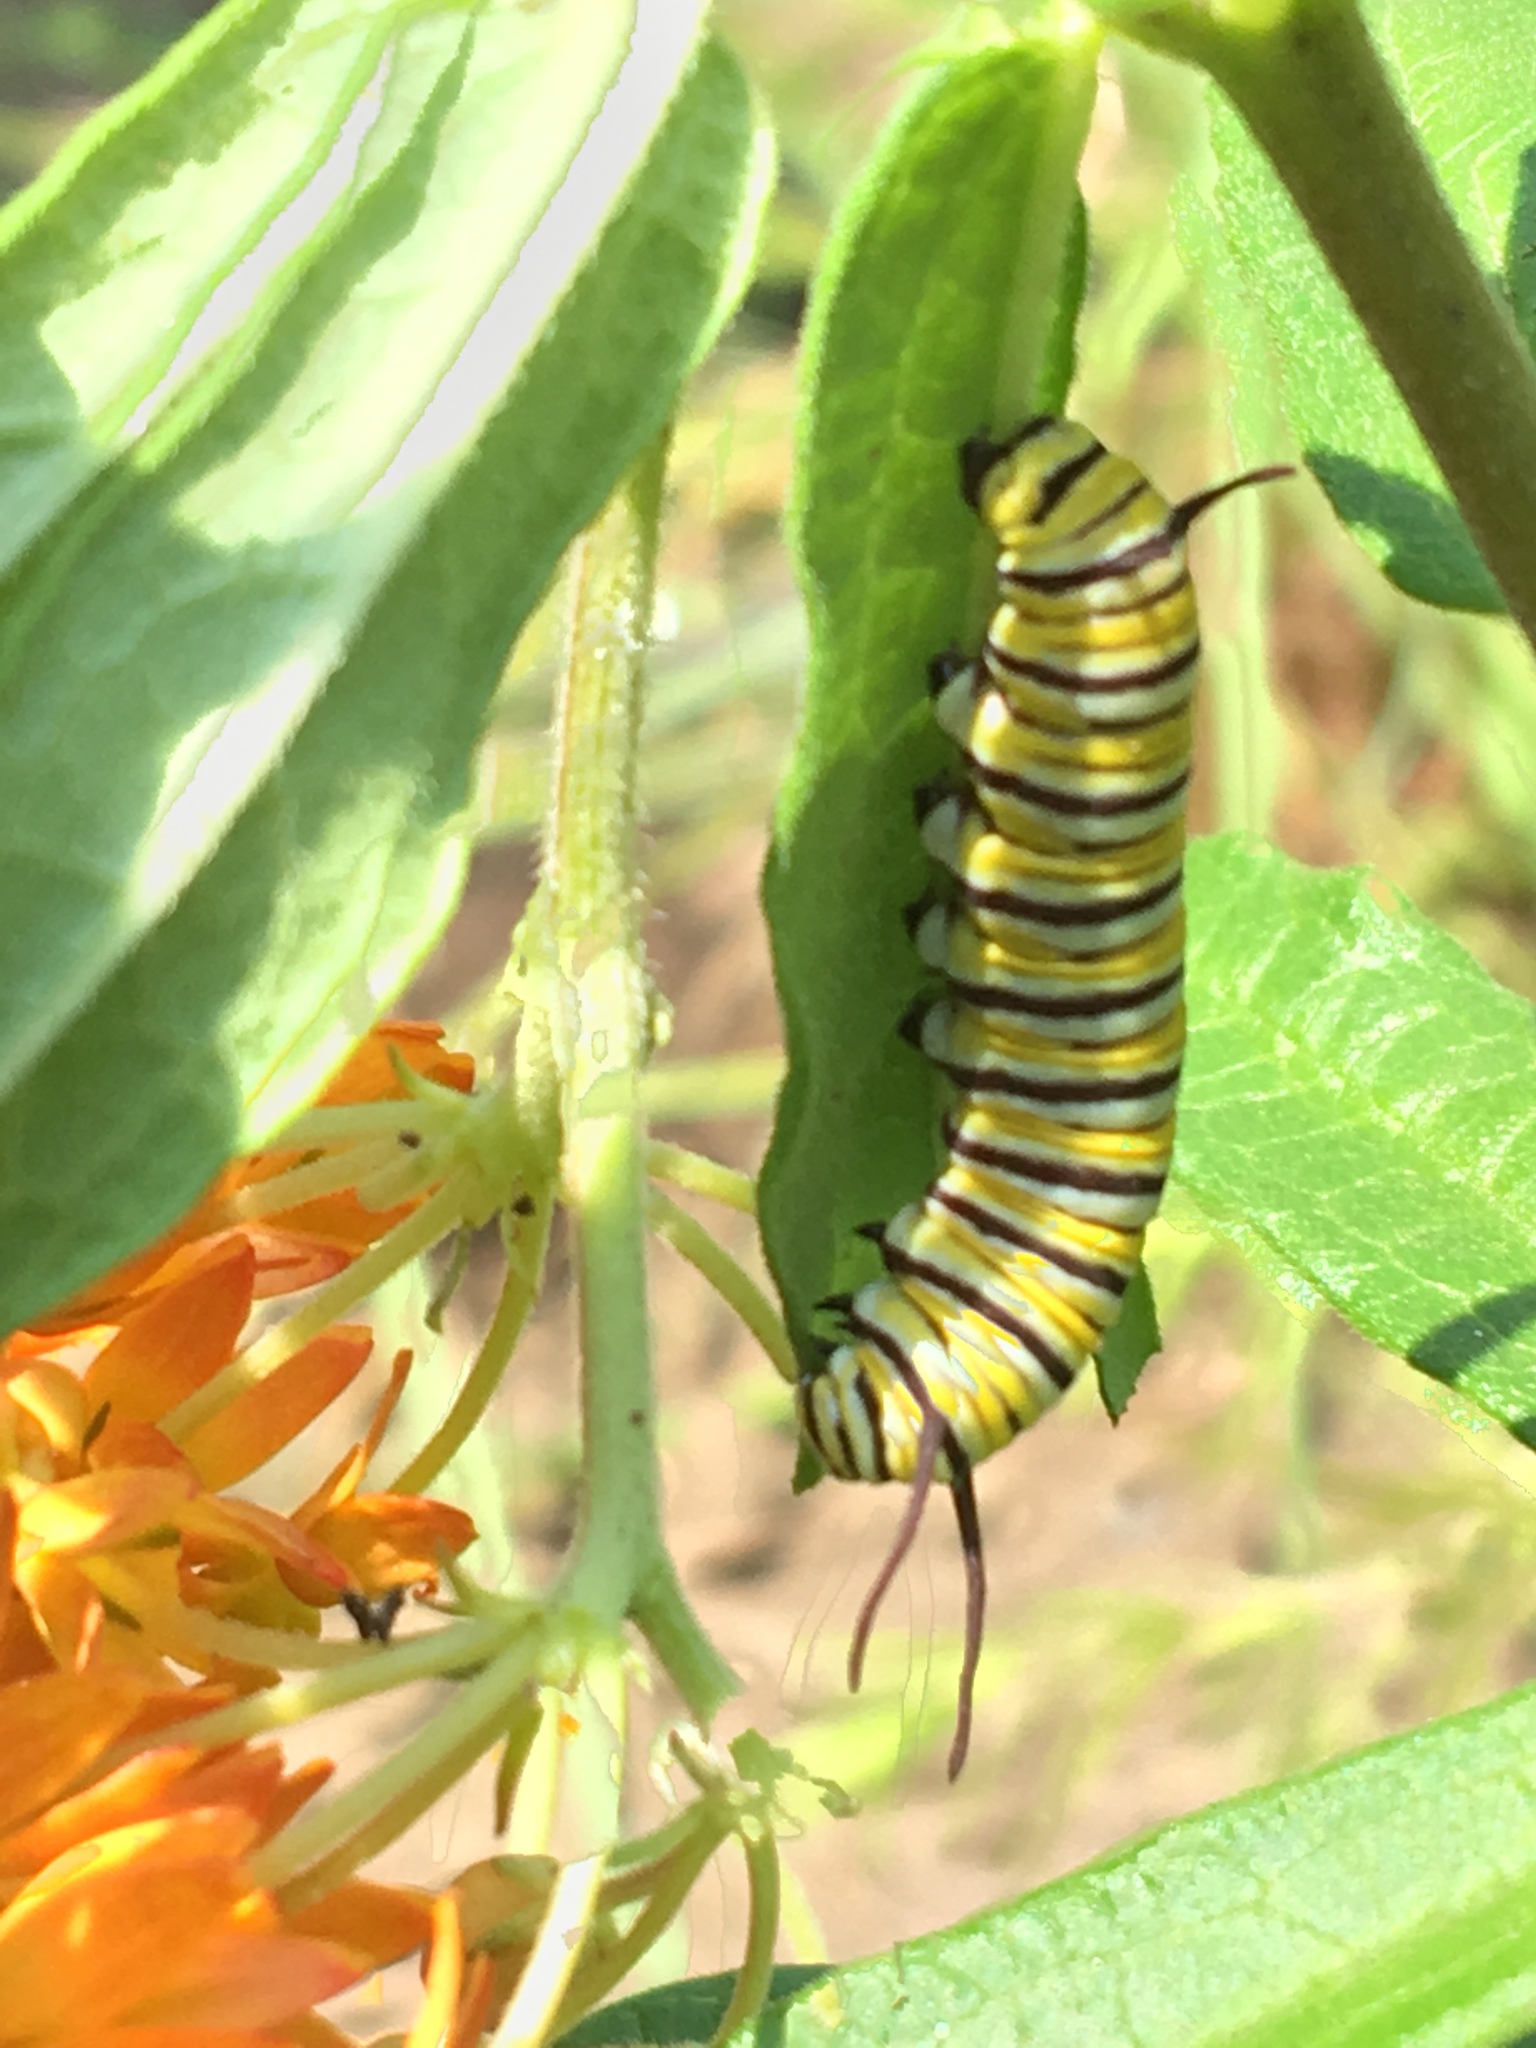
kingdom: Animalia
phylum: Arthropoda
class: Insecta
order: Lepidoptera
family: Nymphalidae
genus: Danaus
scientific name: Danaus plexippus
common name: Monarch
